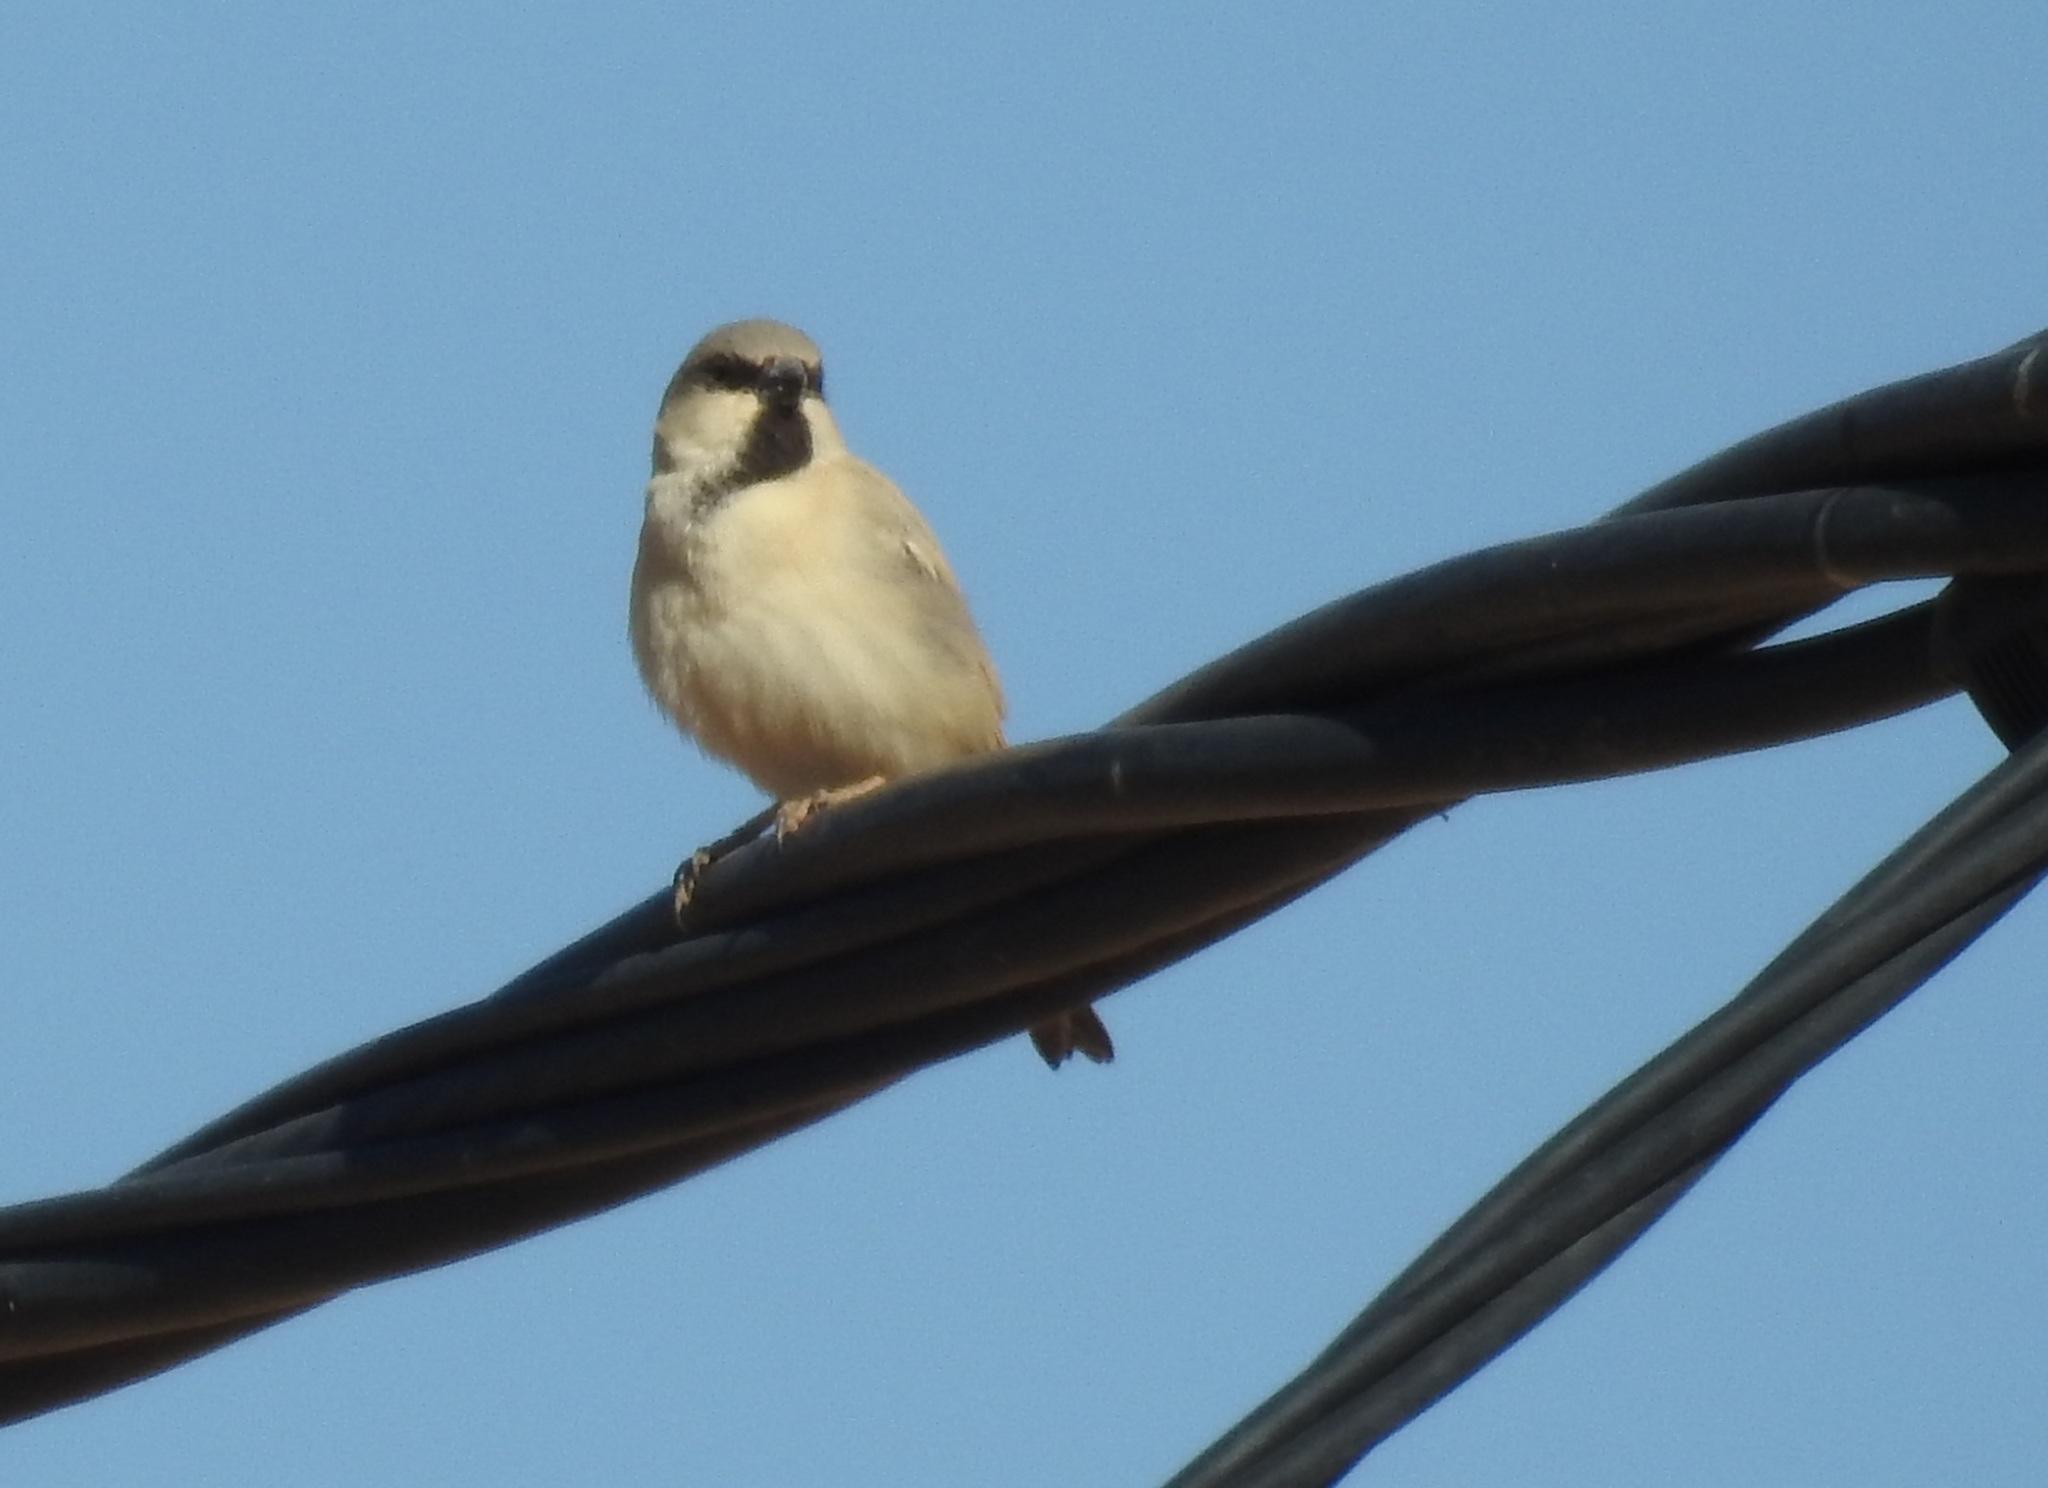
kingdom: Animalia
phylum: Chordata
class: Aves
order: Passeriformes
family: Passeridae
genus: Passer
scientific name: Passer simplex
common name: Desert sparrow
